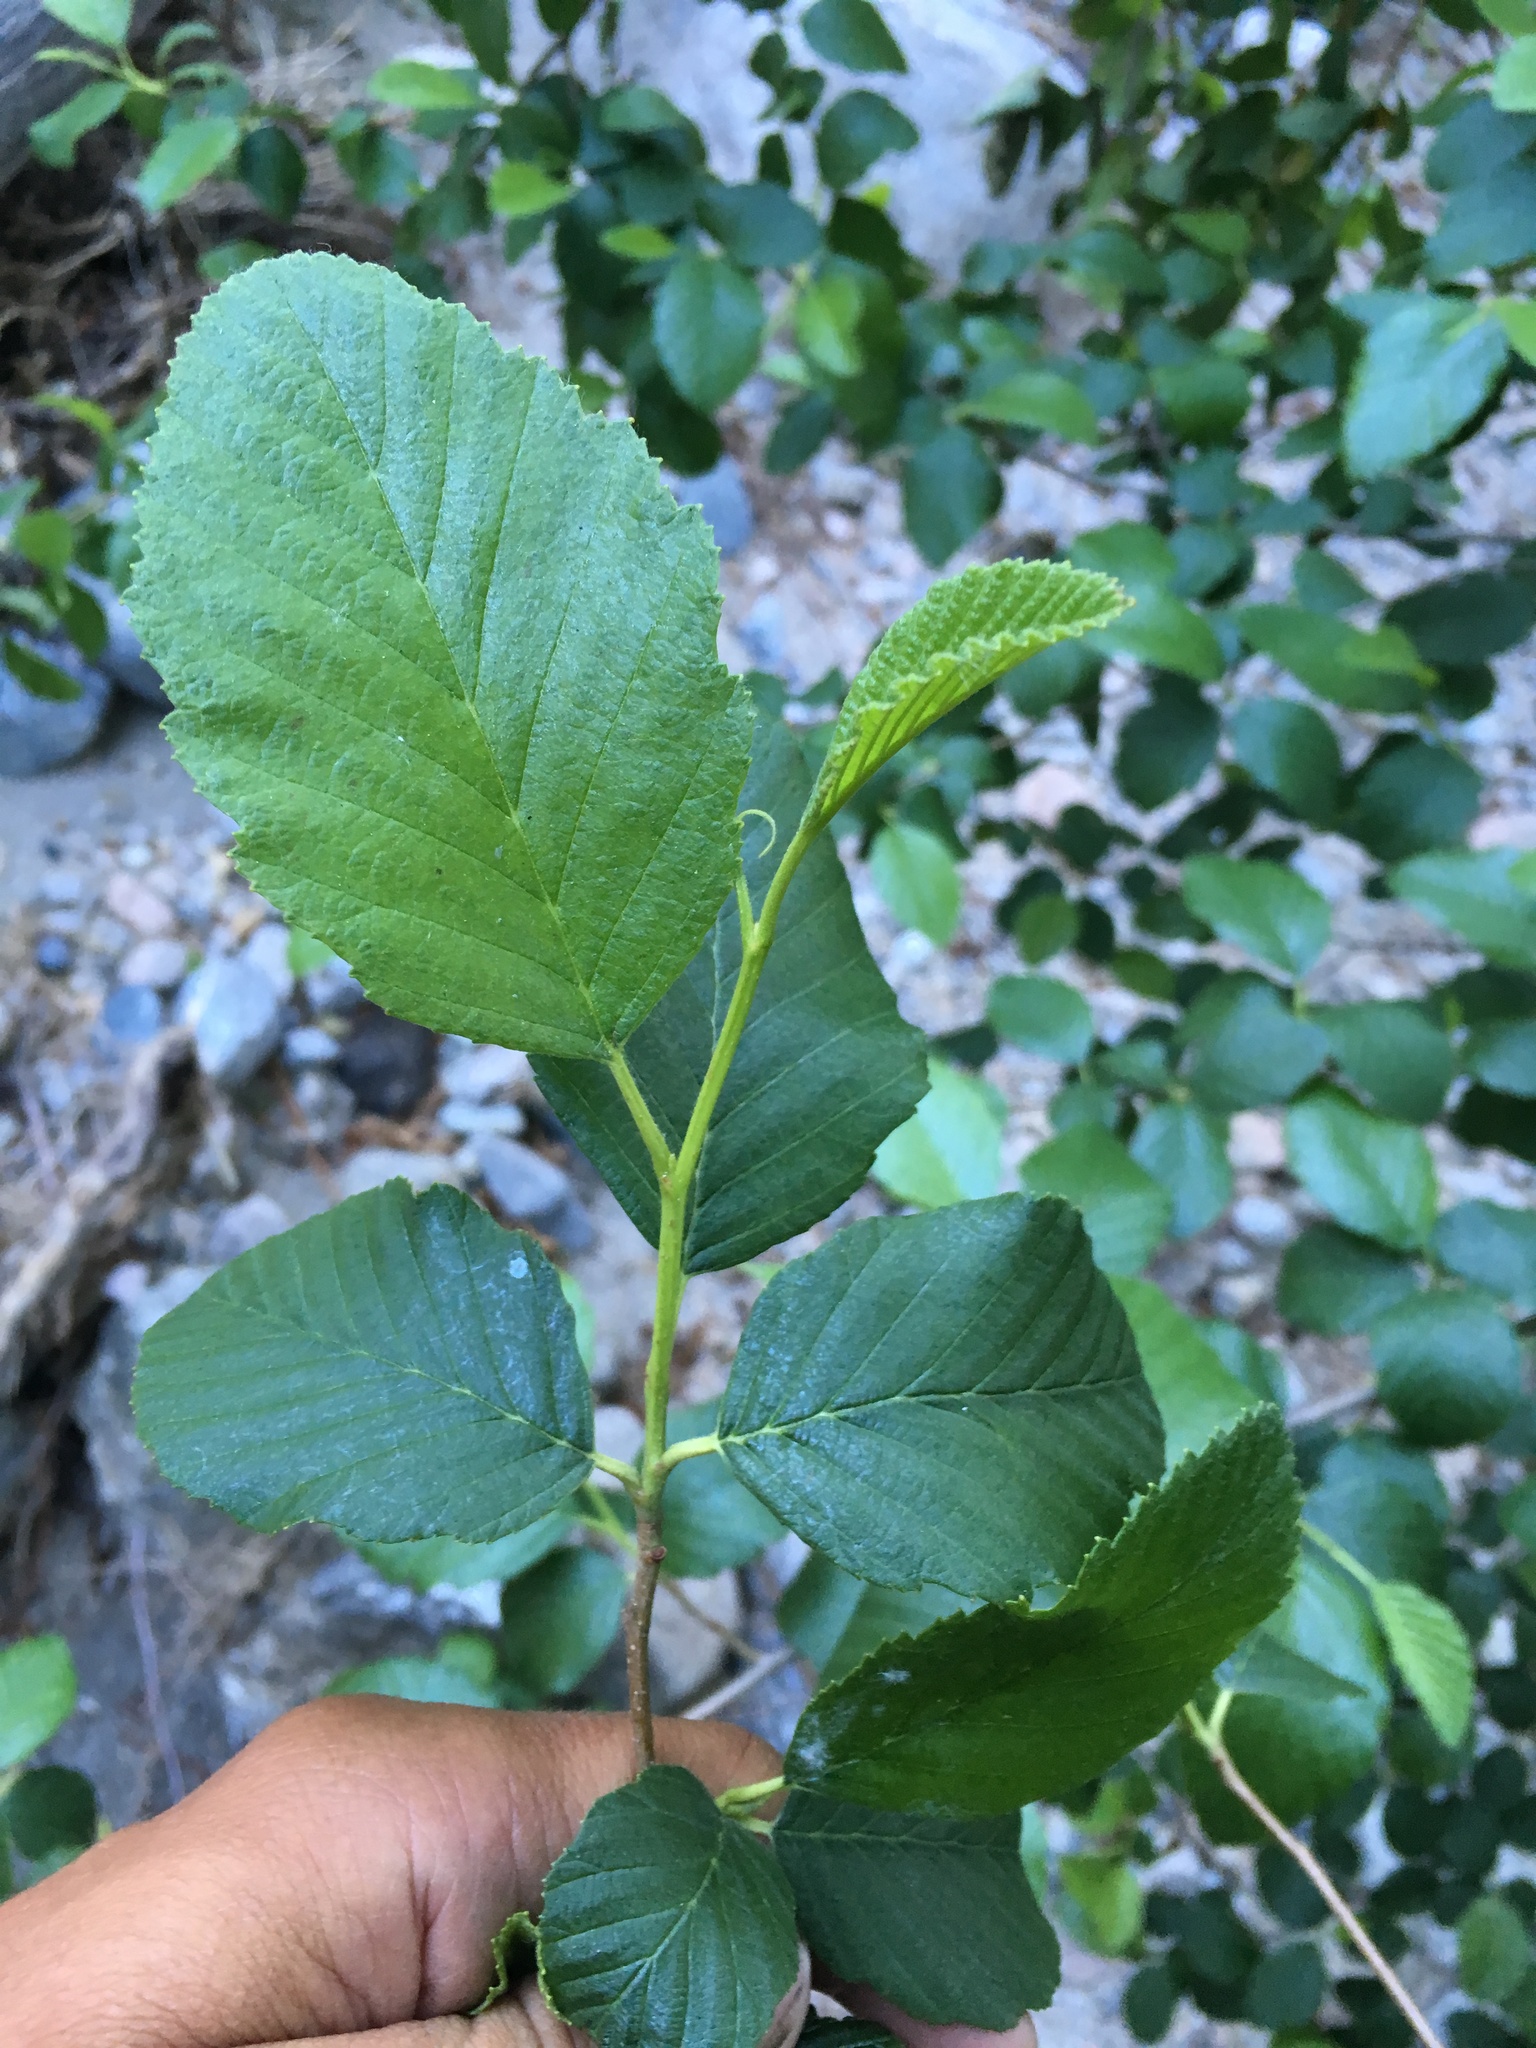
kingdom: Plantae
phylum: Tracheophyta
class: Magnoliopsida
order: Fagales
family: Betulaceae
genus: Alnus
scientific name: Alnus rhombifolia
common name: California alder
